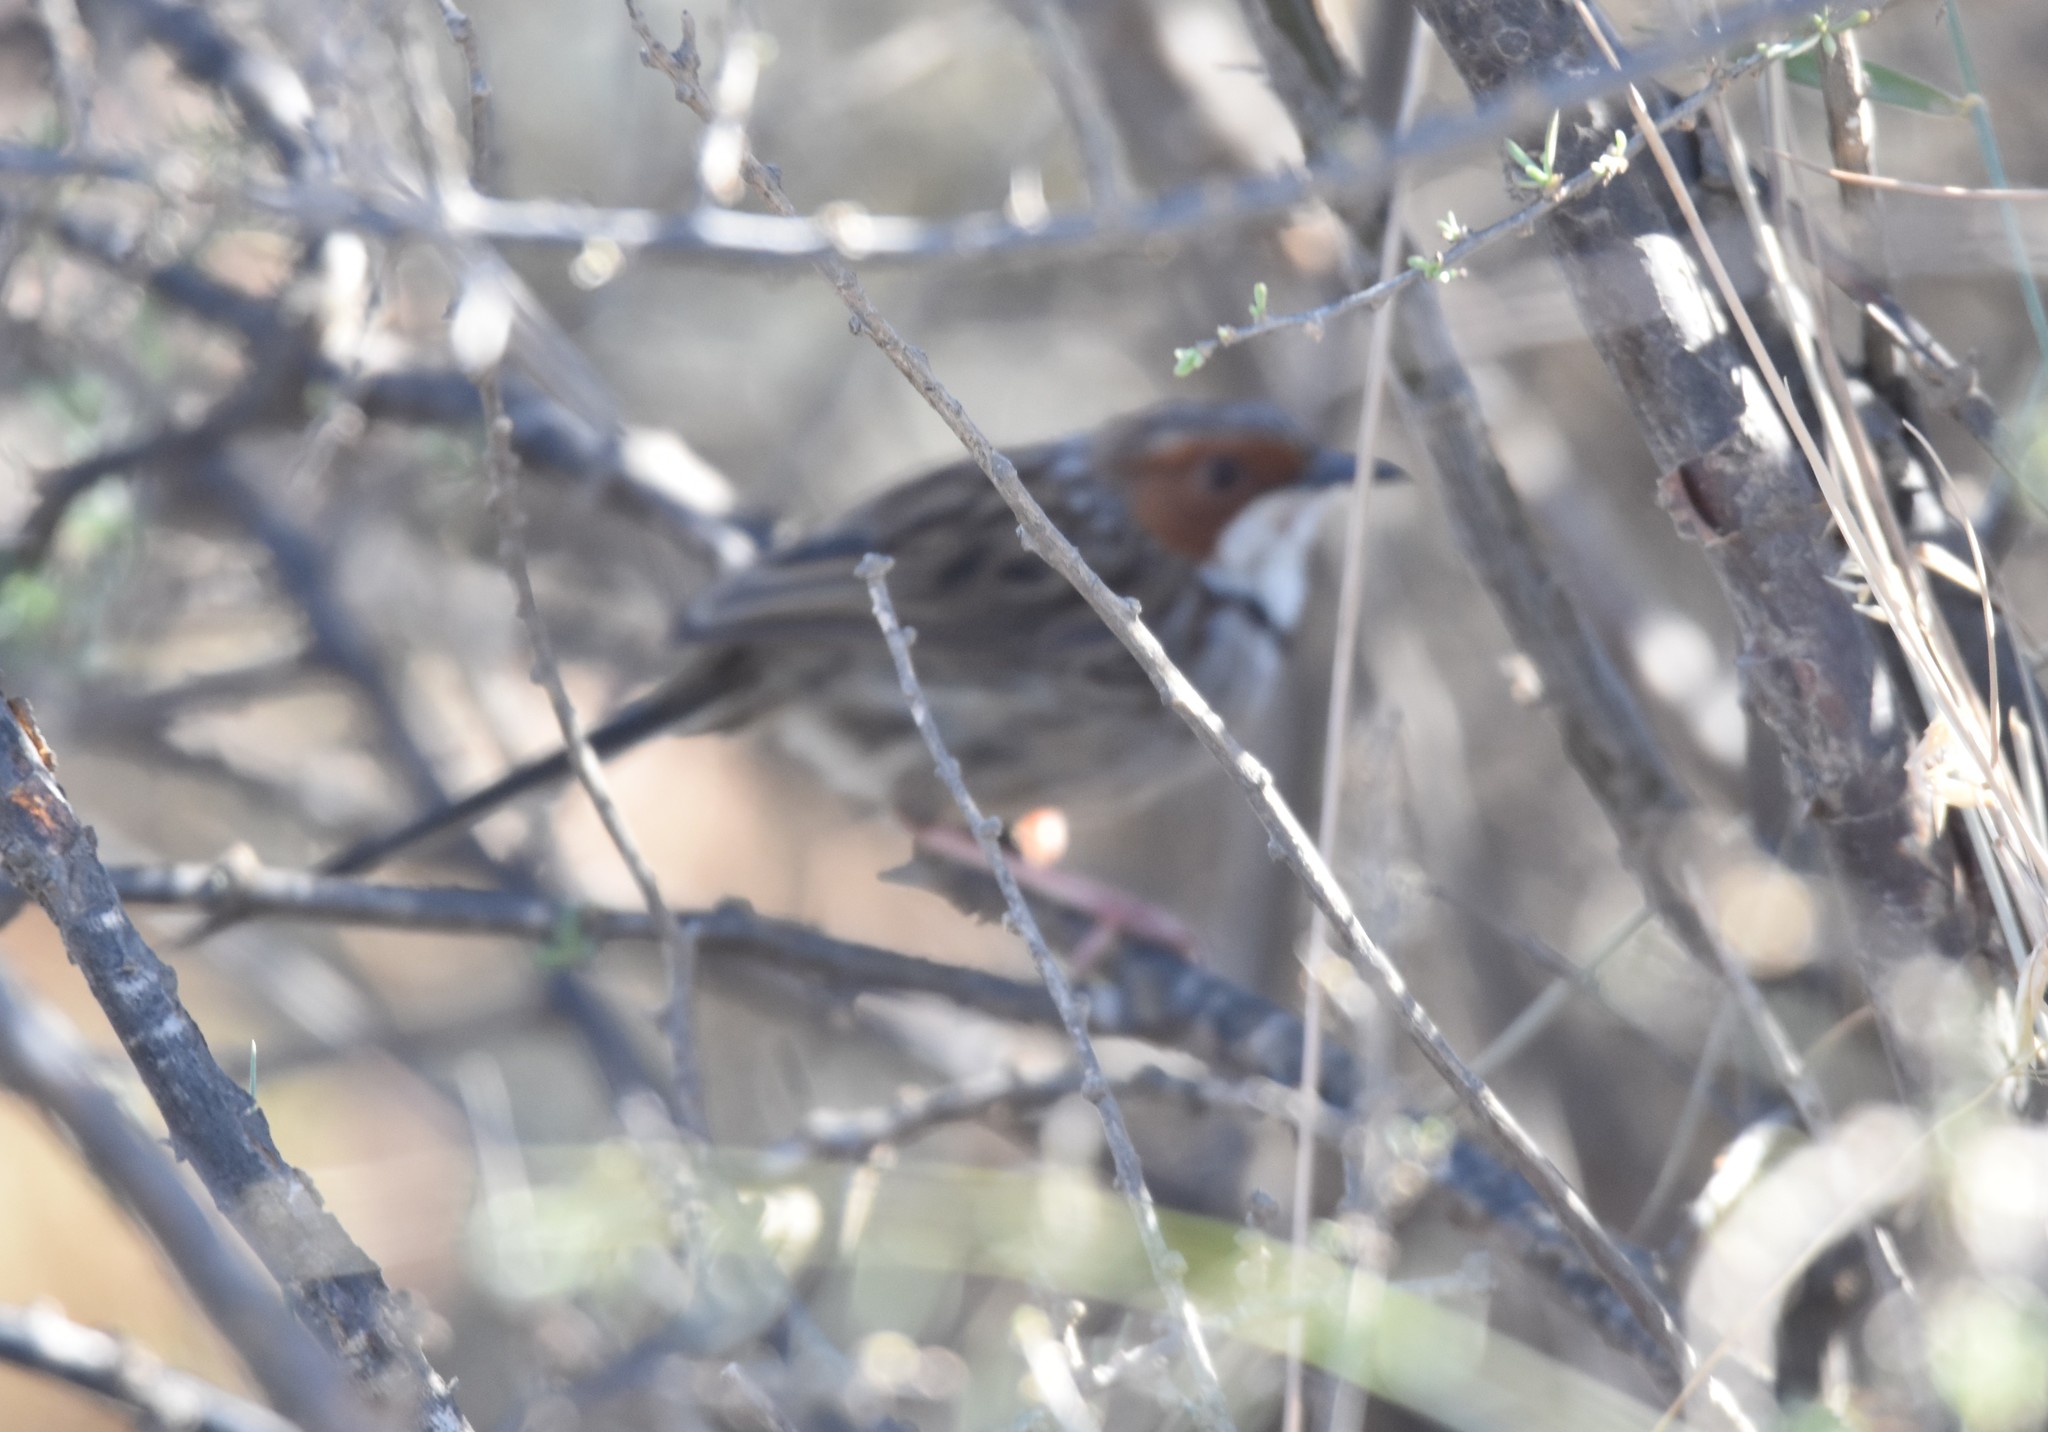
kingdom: Animalia
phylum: Chordata
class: Aves
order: Passeriformes
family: Cisticolidae
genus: Malcorus
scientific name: Malcorus pectoralis
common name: Rufous-eared warbler
